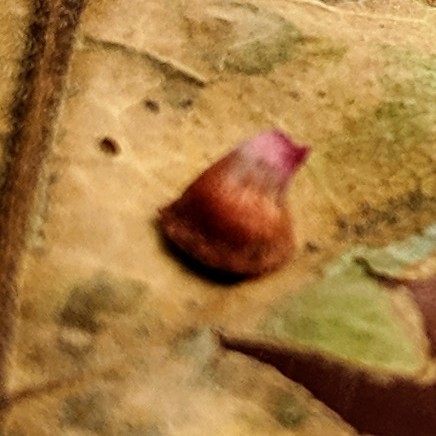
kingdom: Animalia
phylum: Arthropoda
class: Insecta
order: Hymenoptera
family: Cynipidae
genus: Andricus
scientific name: Andricus
